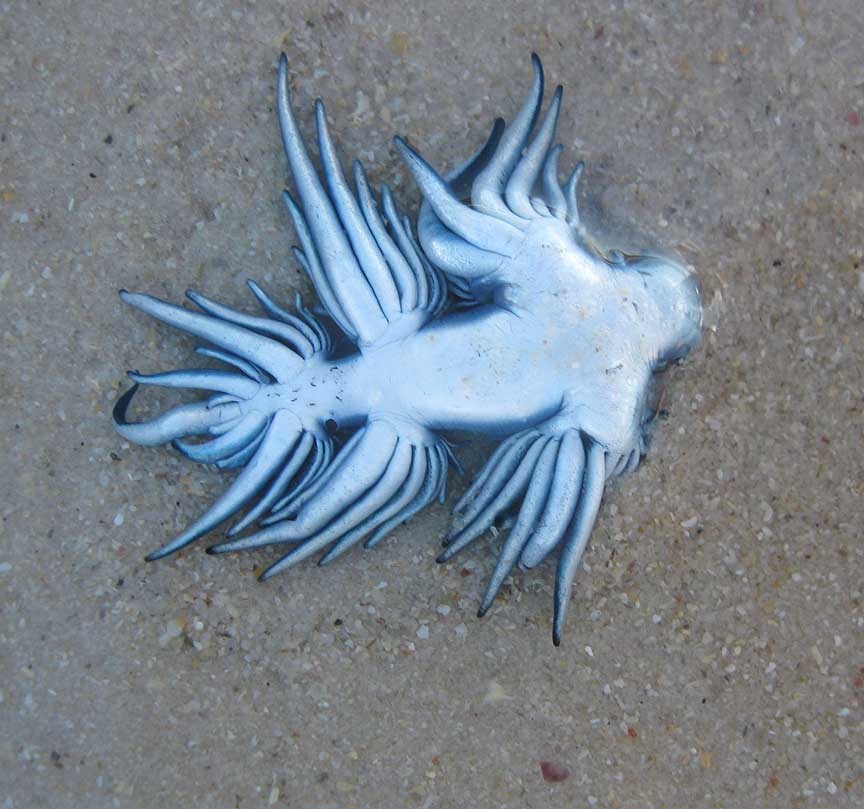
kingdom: Animalia
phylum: Mollusca
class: Gastropoda
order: Nudibranchia
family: Glaucidae
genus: Glaucus
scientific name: Glaucus atlanticus
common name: Purple ocean slug
